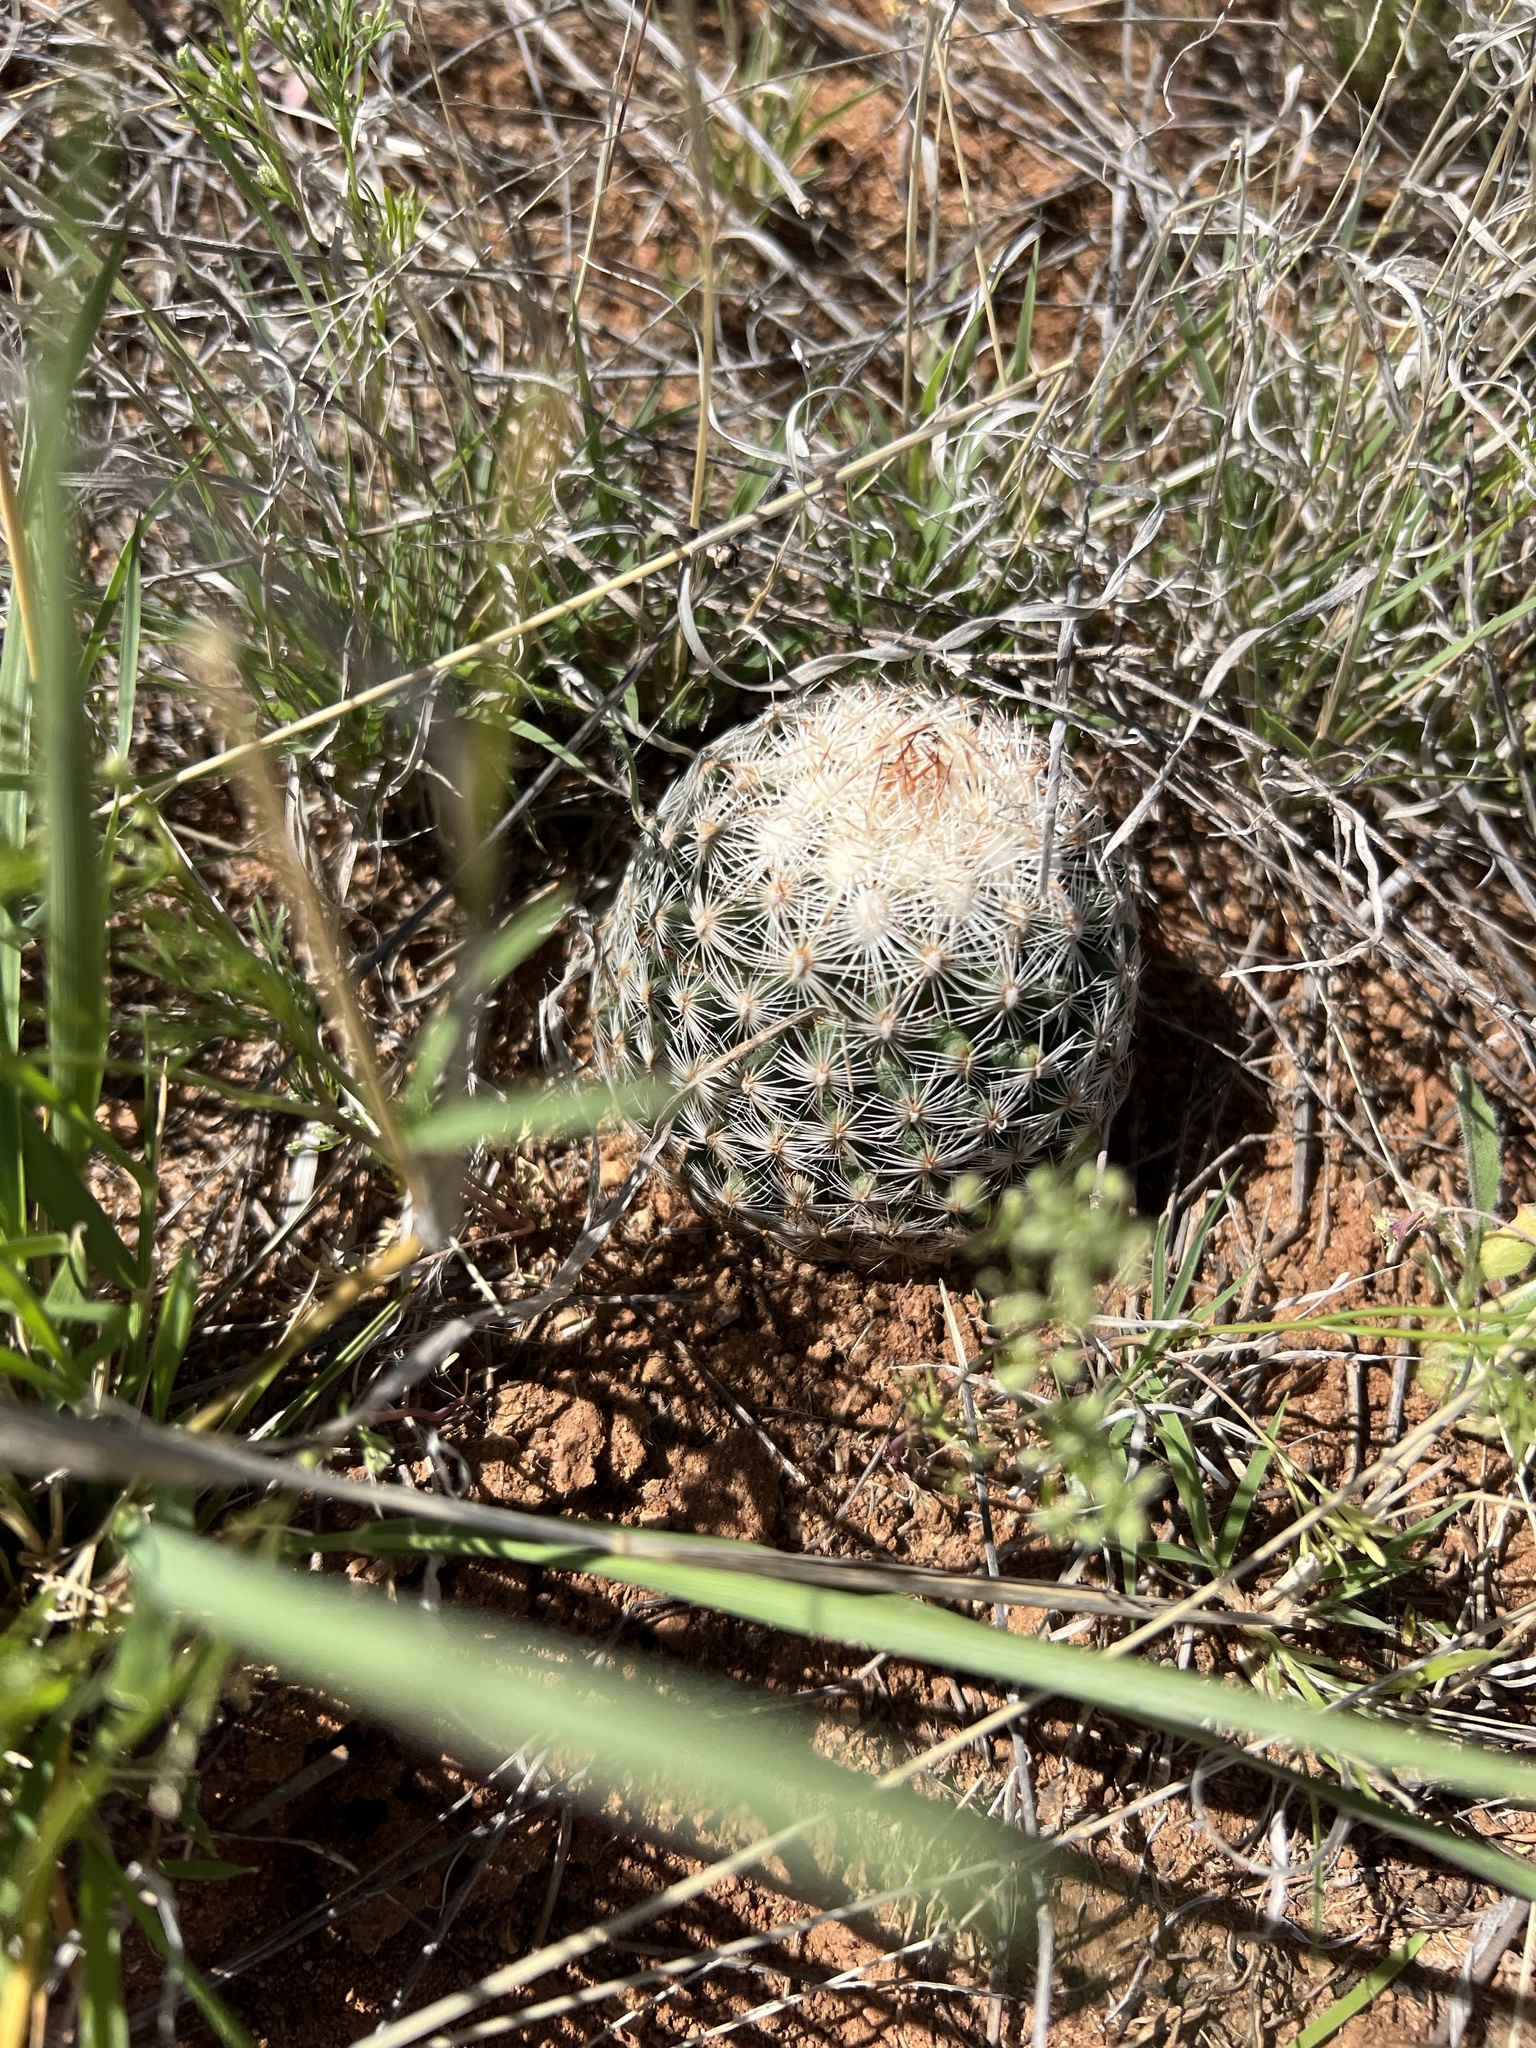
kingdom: Plantae
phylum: Tracheophyta
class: Magnoliopsida
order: Caryophyllales
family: Cactaceae
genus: Pelecyphora
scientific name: Pelecyphora vivipara
